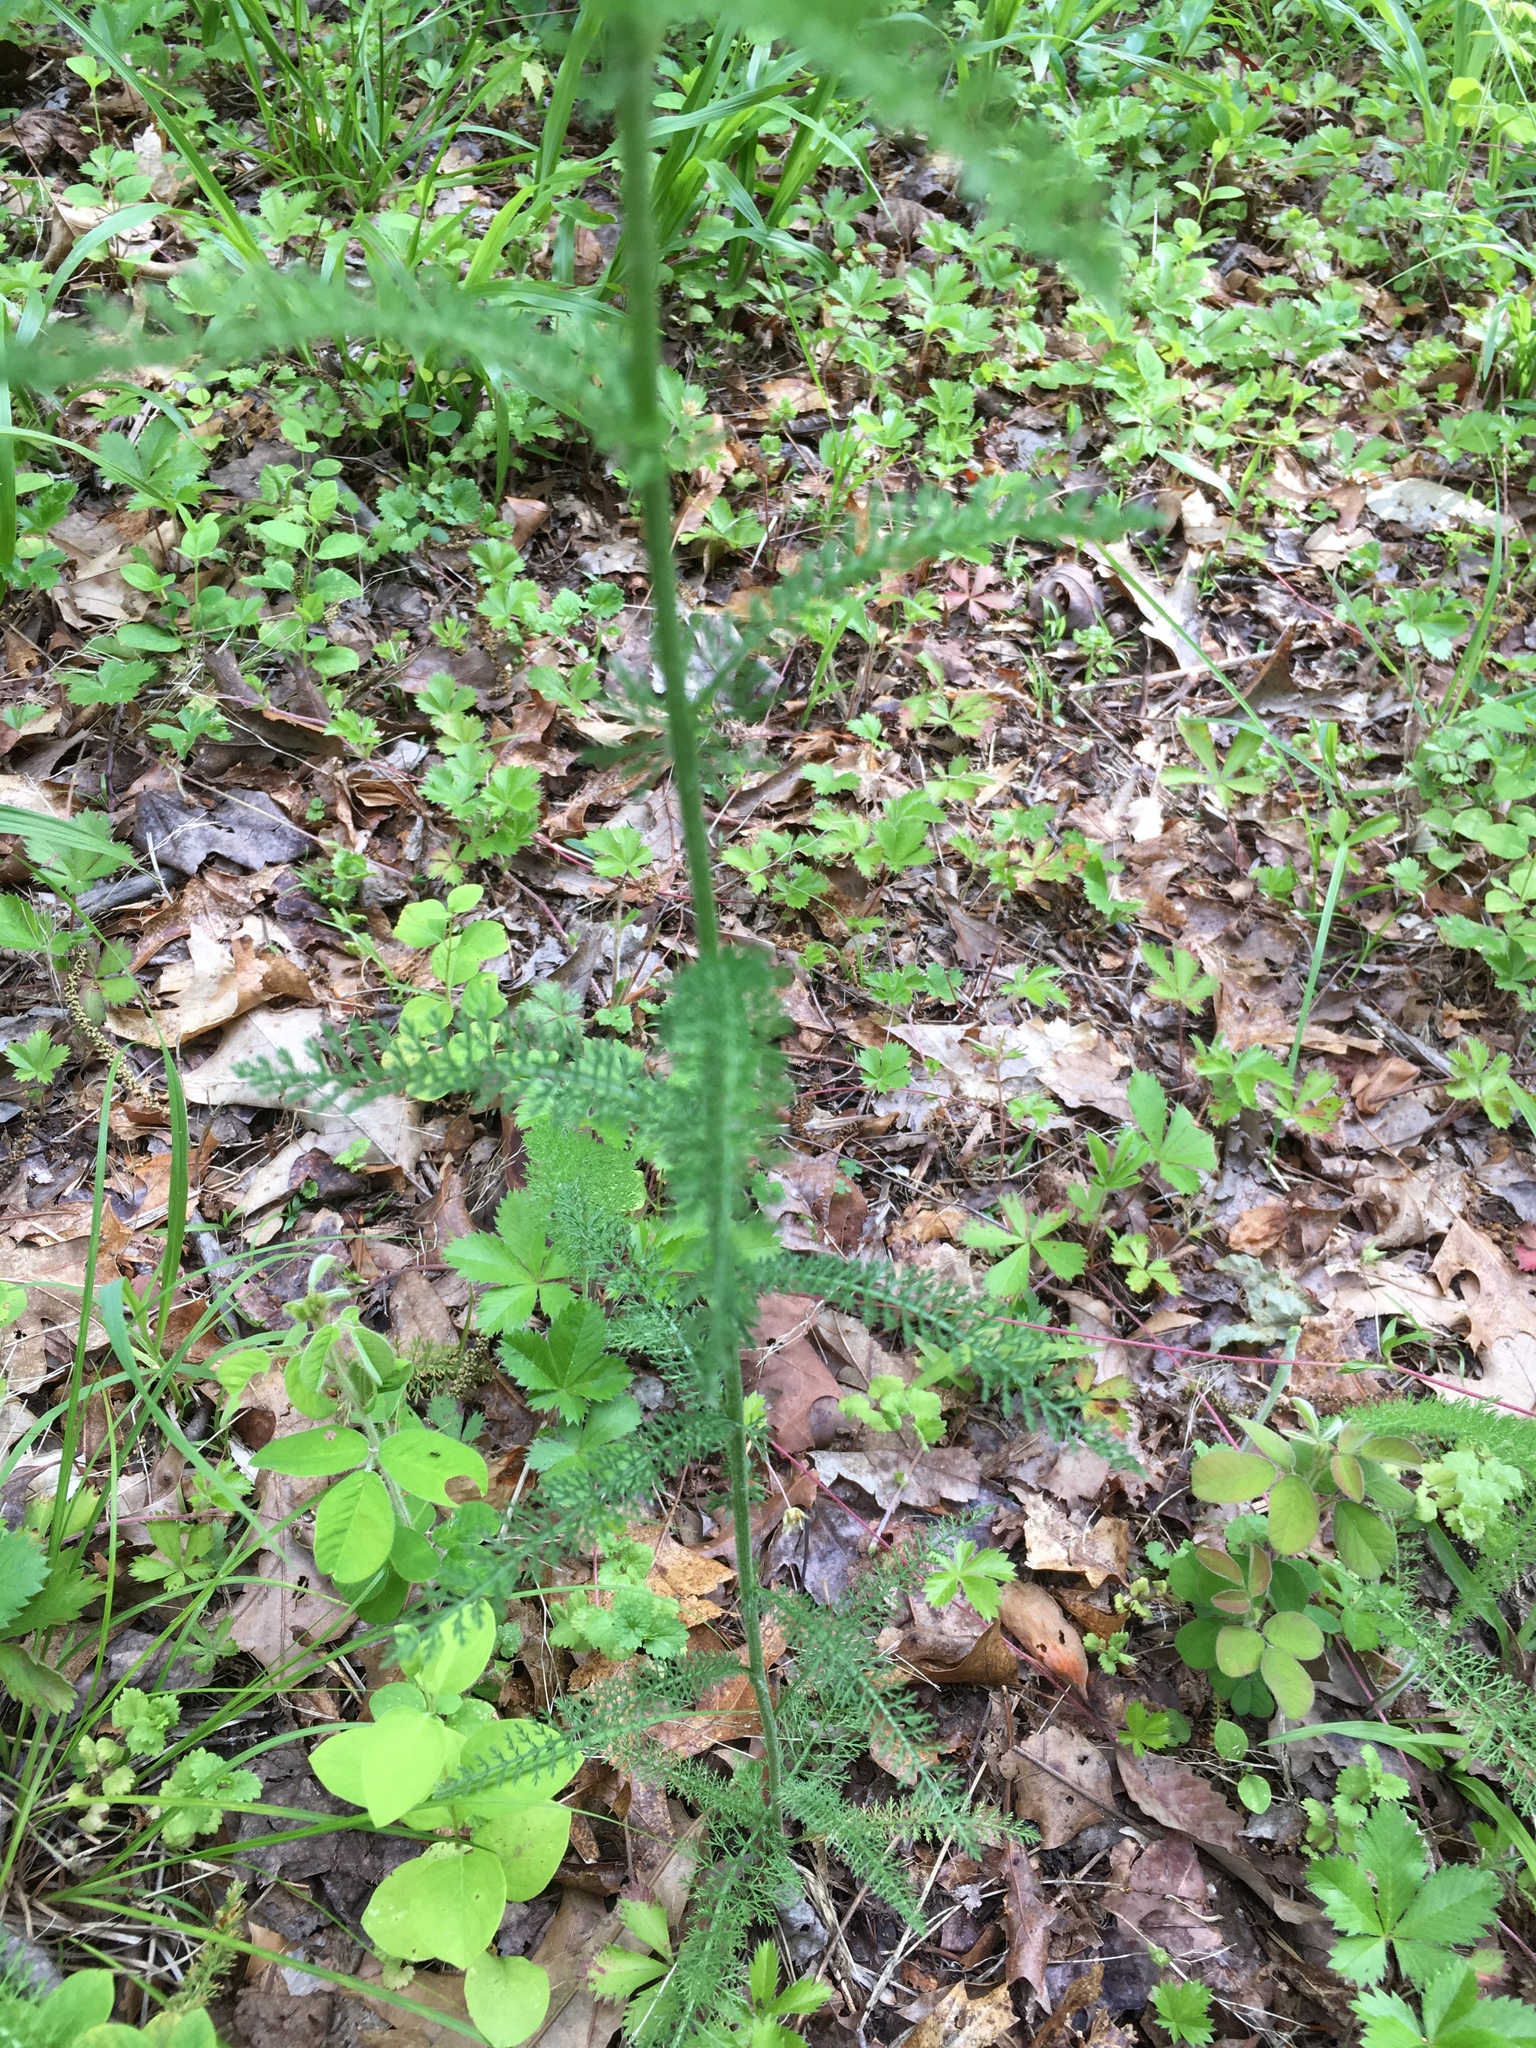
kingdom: Plantae
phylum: Tracheophyta
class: Magnoliopsida
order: Asterales
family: Asteraceae
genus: Achillea
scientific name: Achillea millefolium
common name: Yarrow
